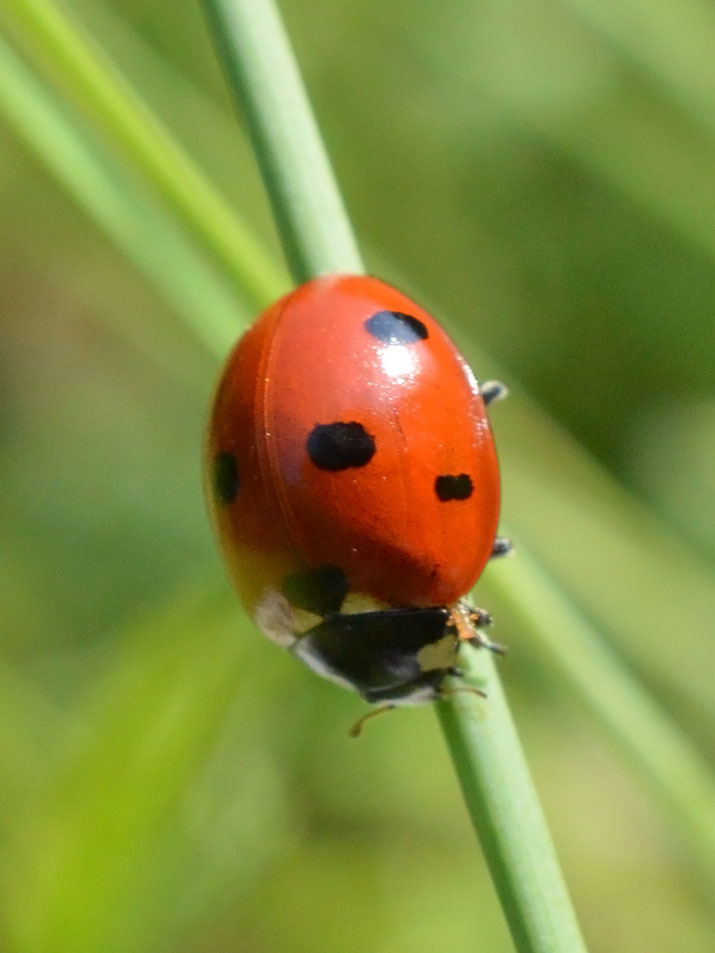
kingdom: Animalia
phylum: Arthropoda
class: Insecta
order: Coleoptera
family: Coccinellidae
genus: Coccinella
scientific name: Coccinella septempunctata
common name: Sevenspotted lady beetle
